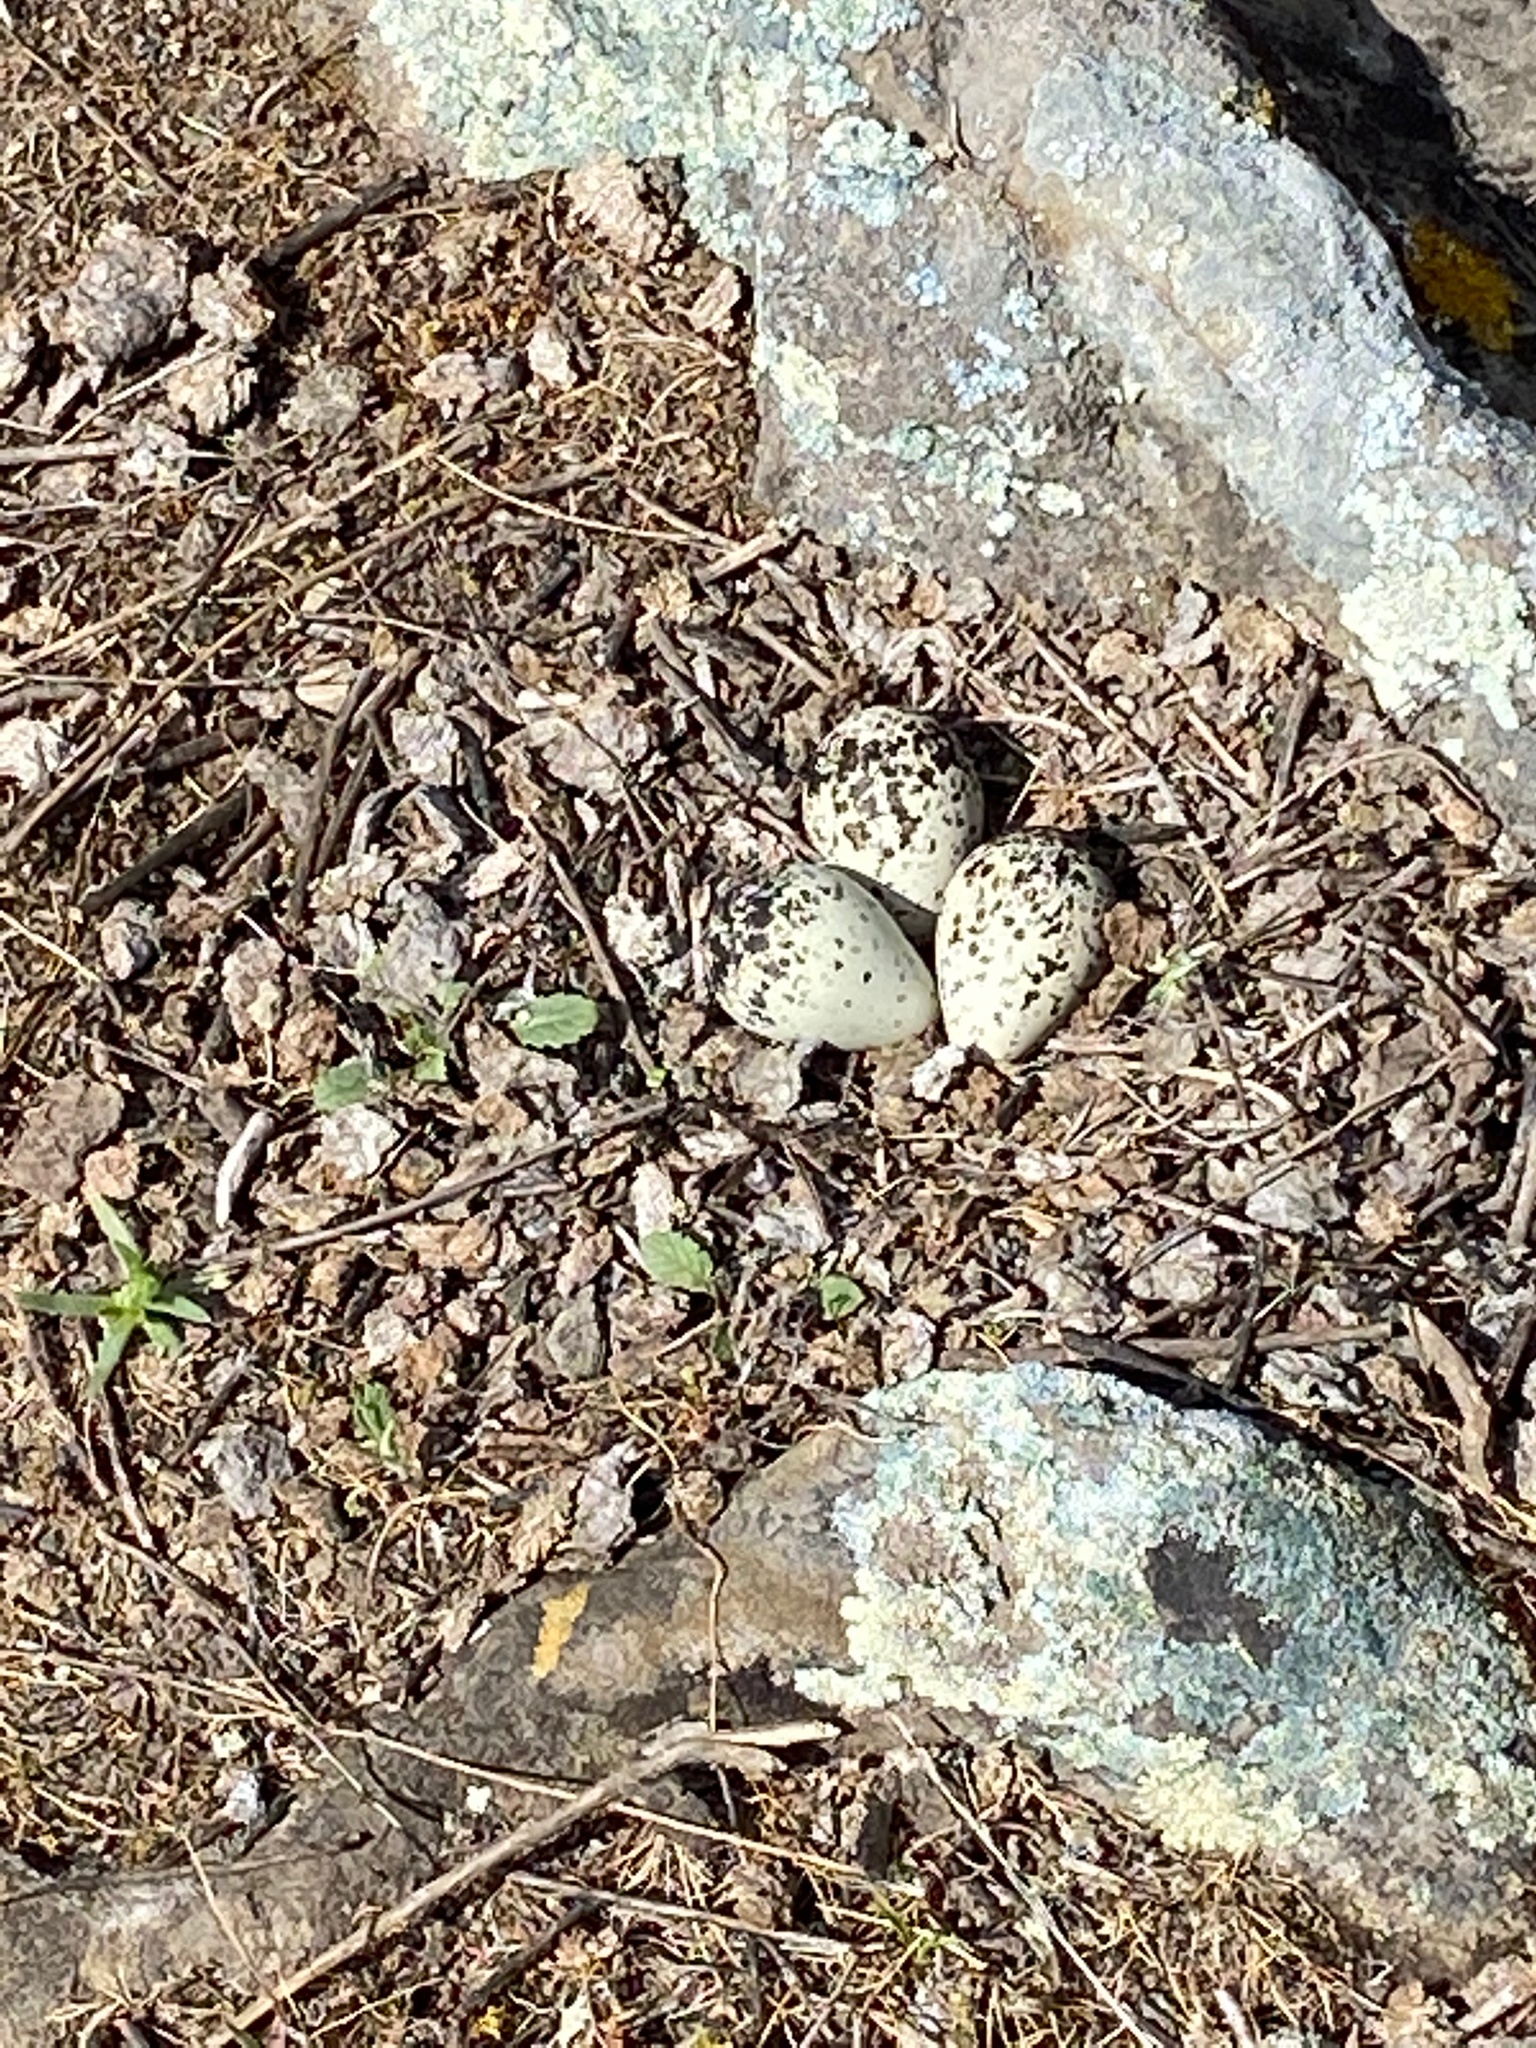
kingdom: Animalia
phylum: Chordata
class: Aves
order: Charadriiformes
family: Charadriidae
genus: Charadrius
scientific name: Charadrius vociferus
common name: Killdeer
